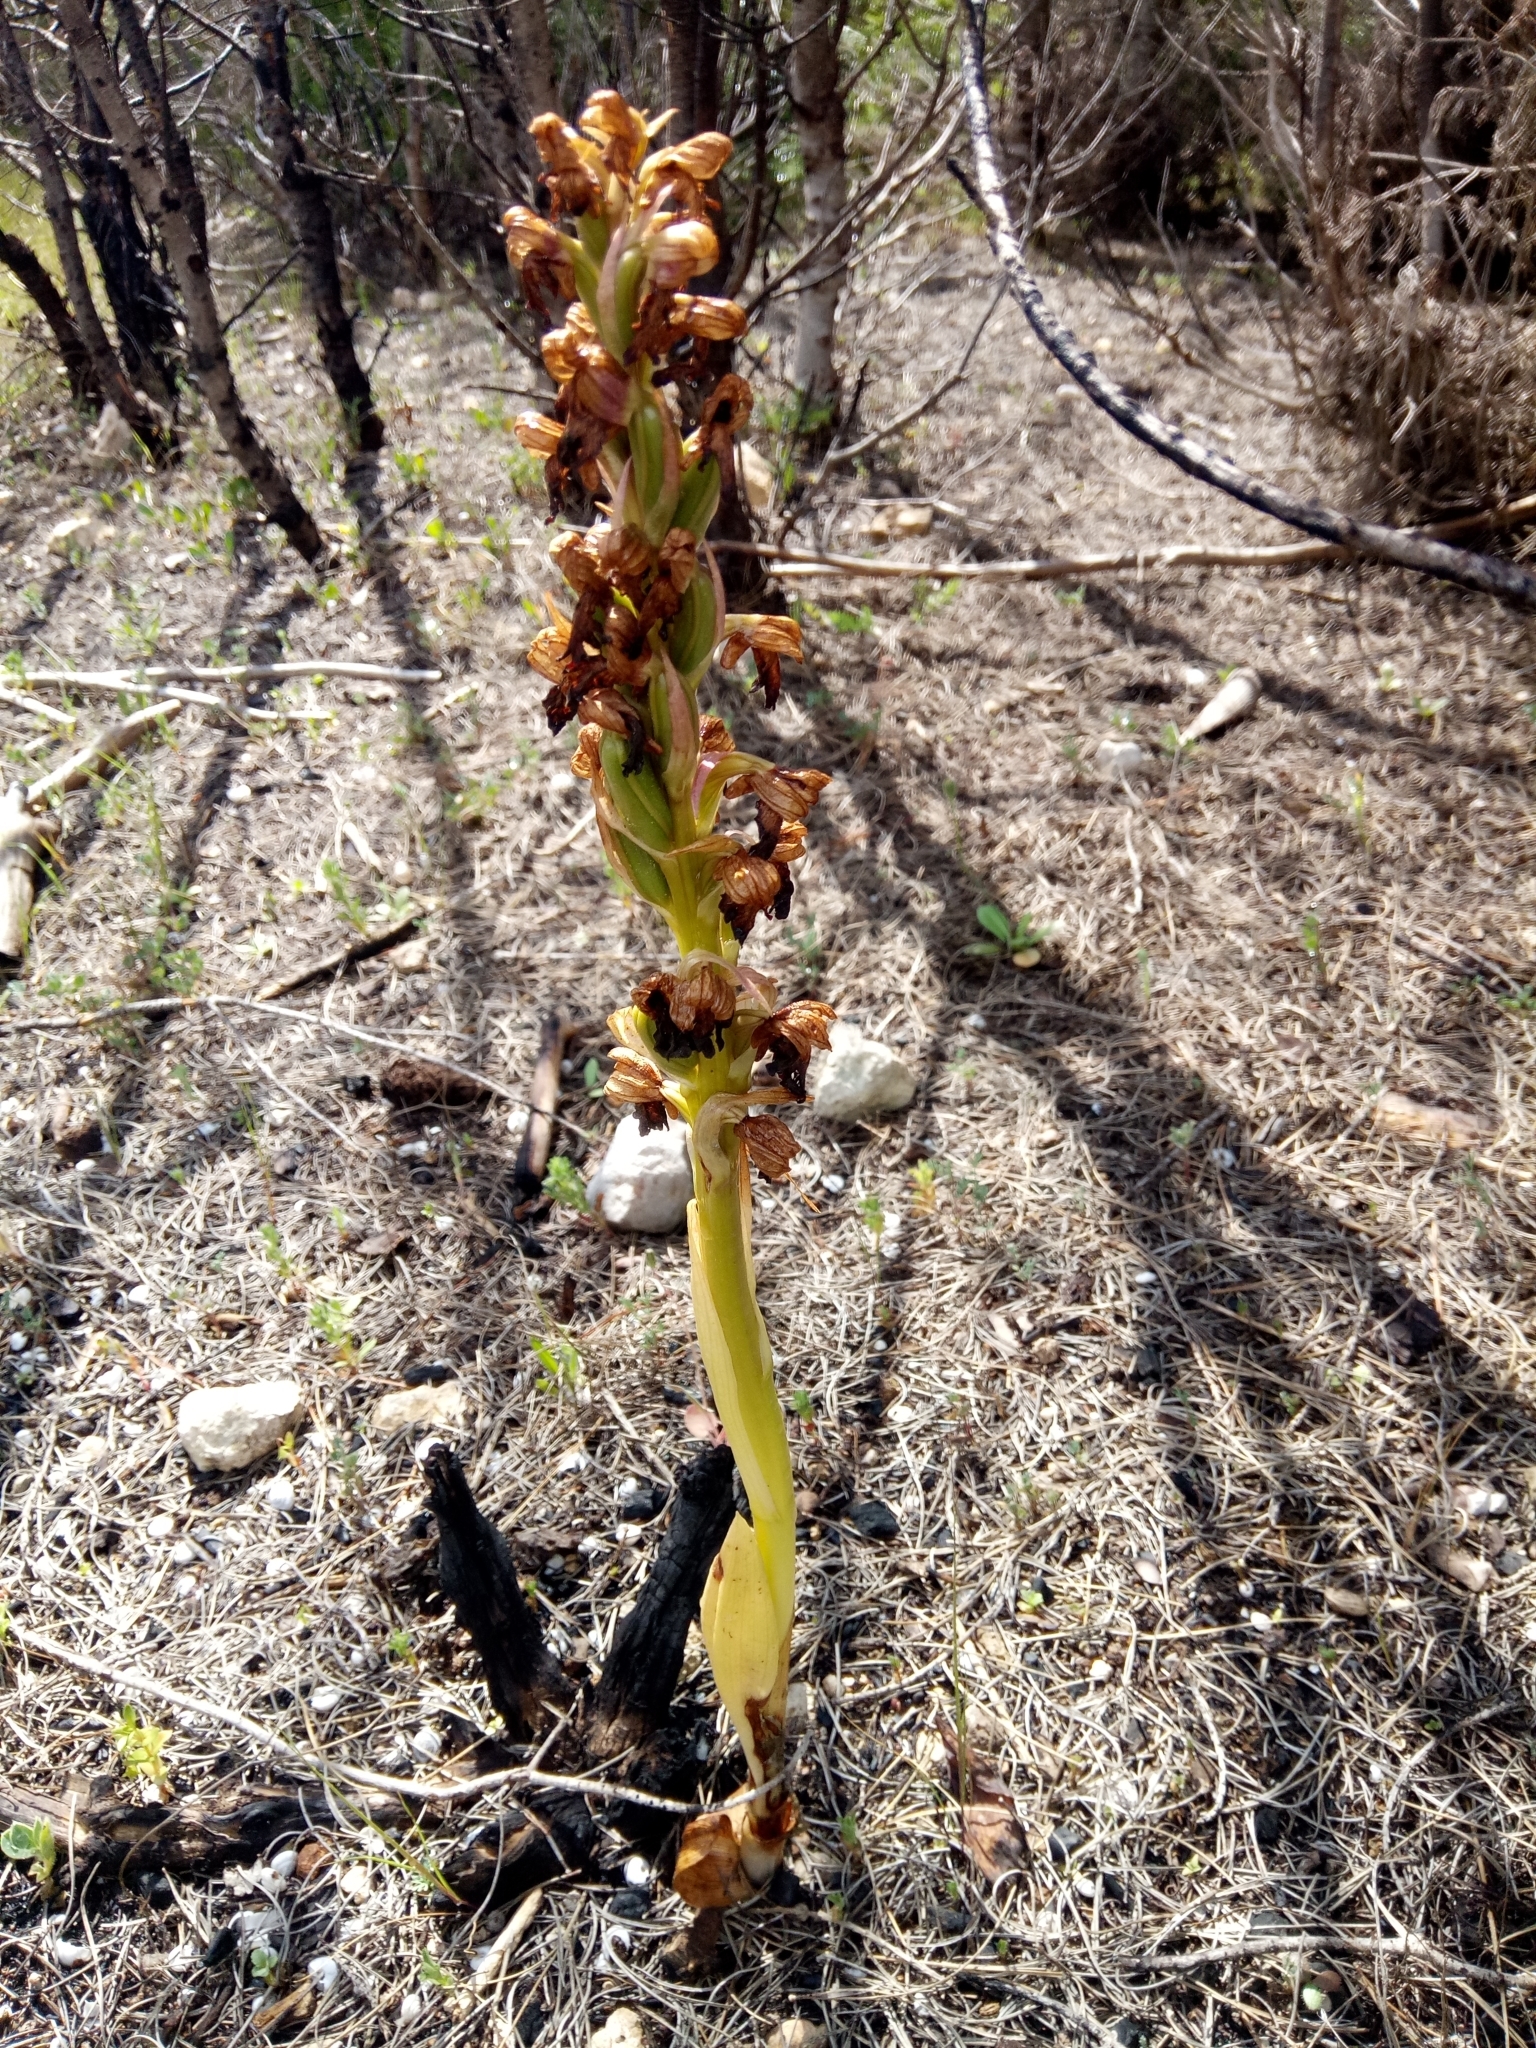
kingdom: Plantae
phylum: Tracheophyta
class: Liliopsida
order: Asparagales
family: Orchidaceae
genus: Himantoglossum
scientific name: Himantoglossum robertianum
